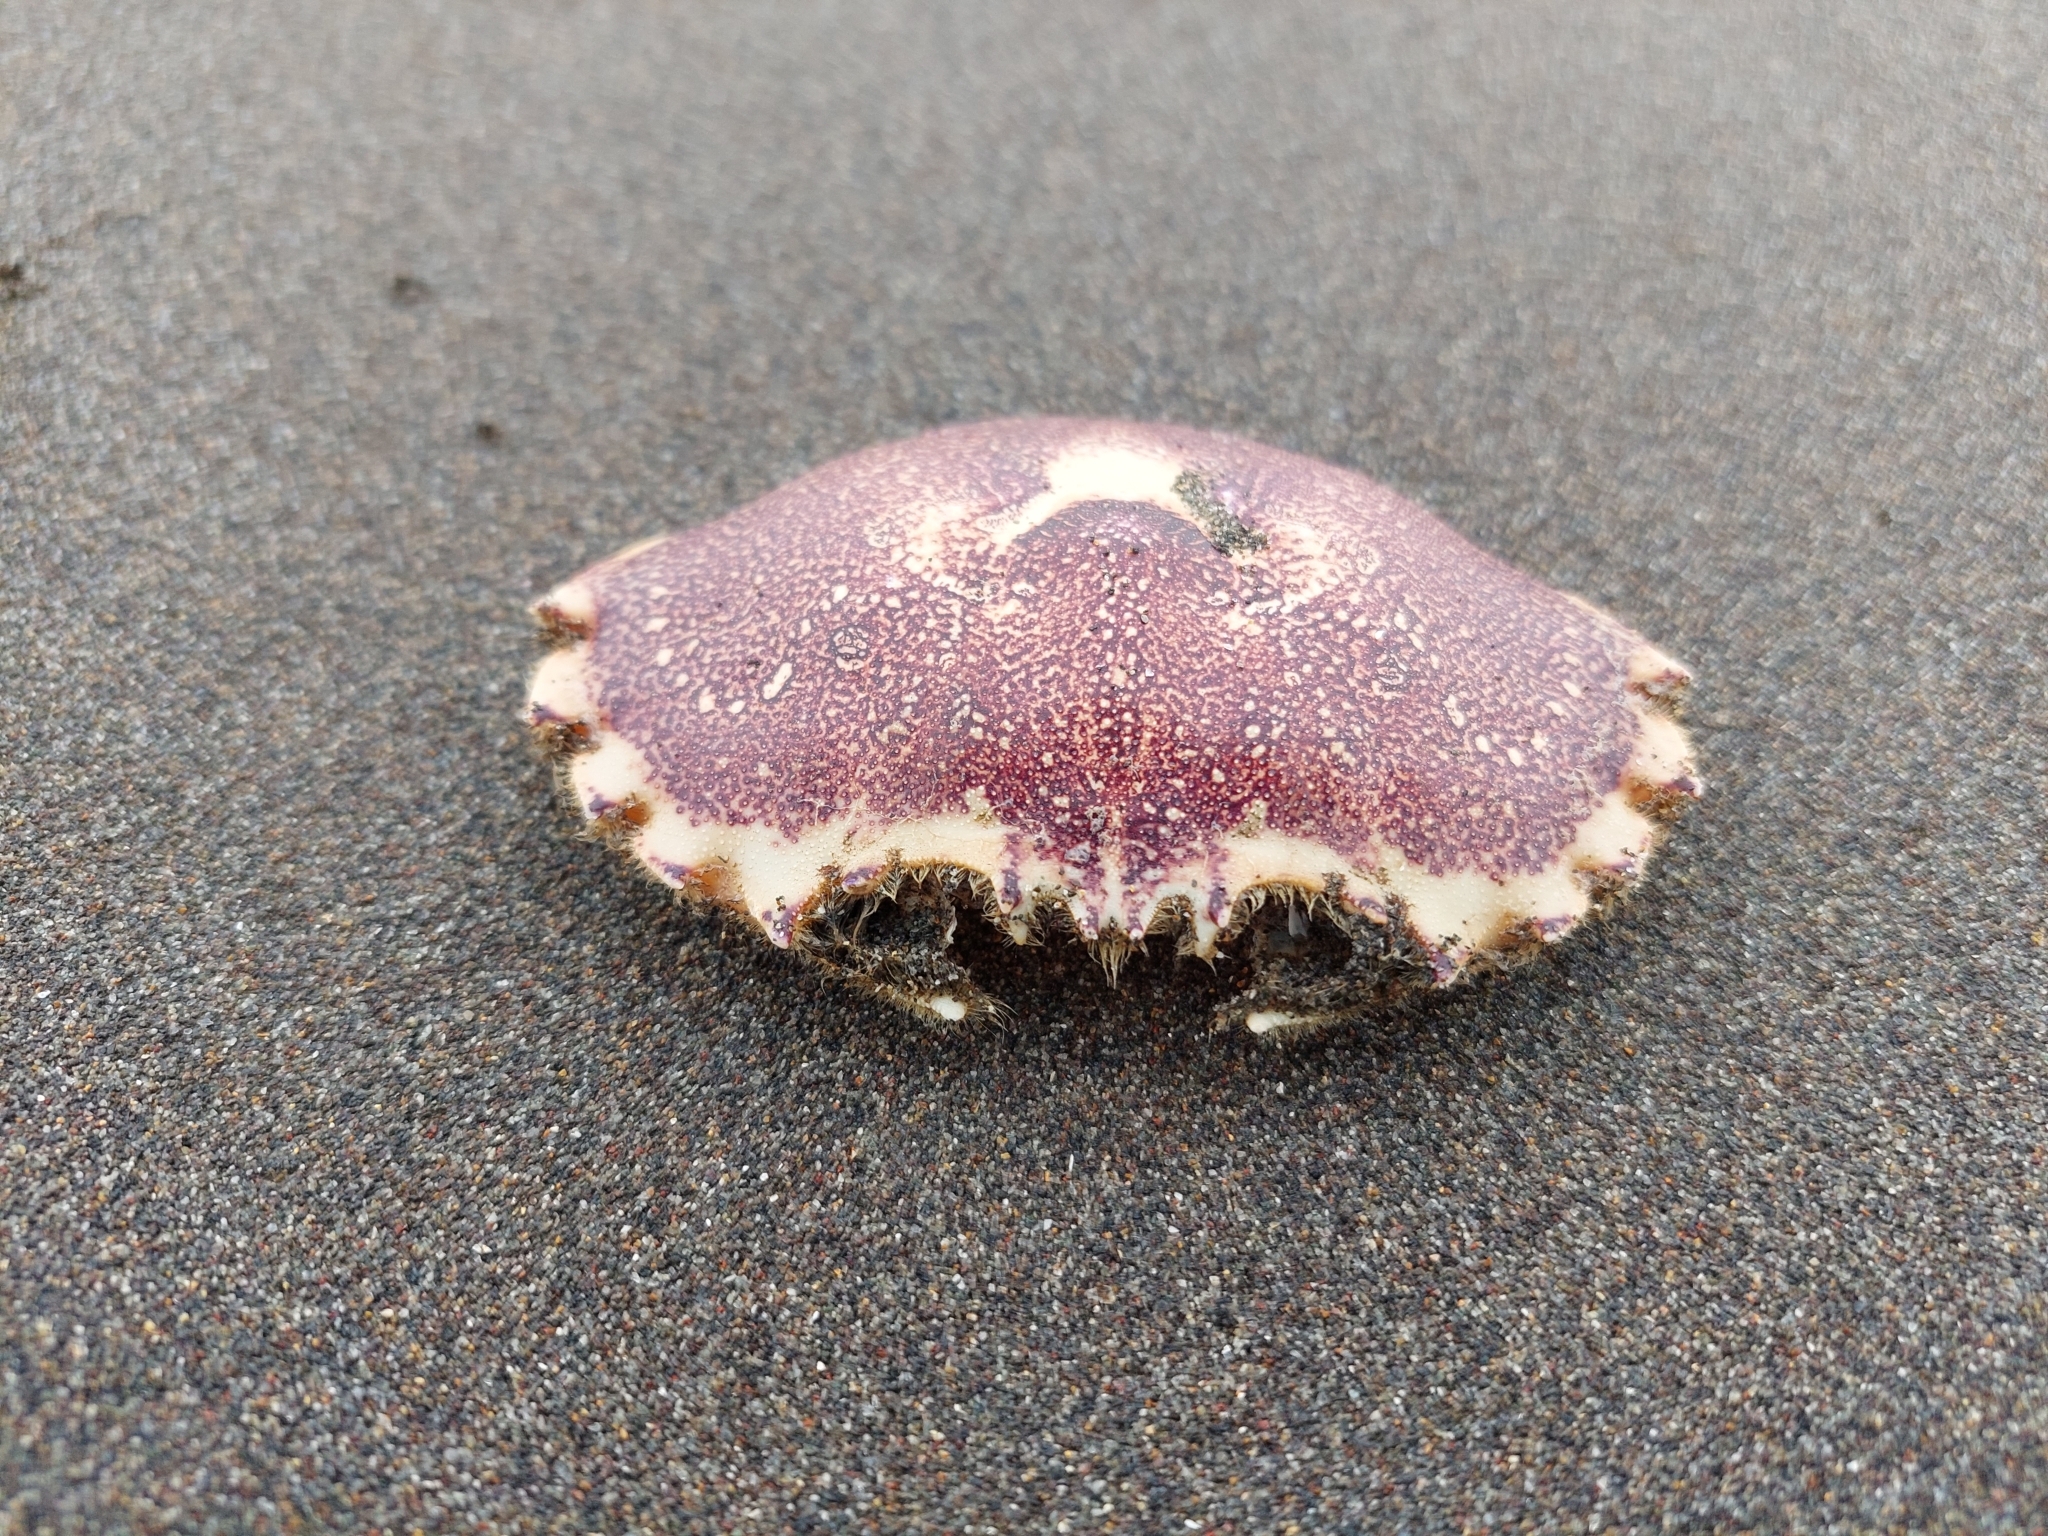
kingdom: Animalia
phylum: Arthropoda
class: Malacostraca
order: Decapoda
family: Ovalipidae
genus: Ovalipes
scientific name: Ovalipes trimaculatus
